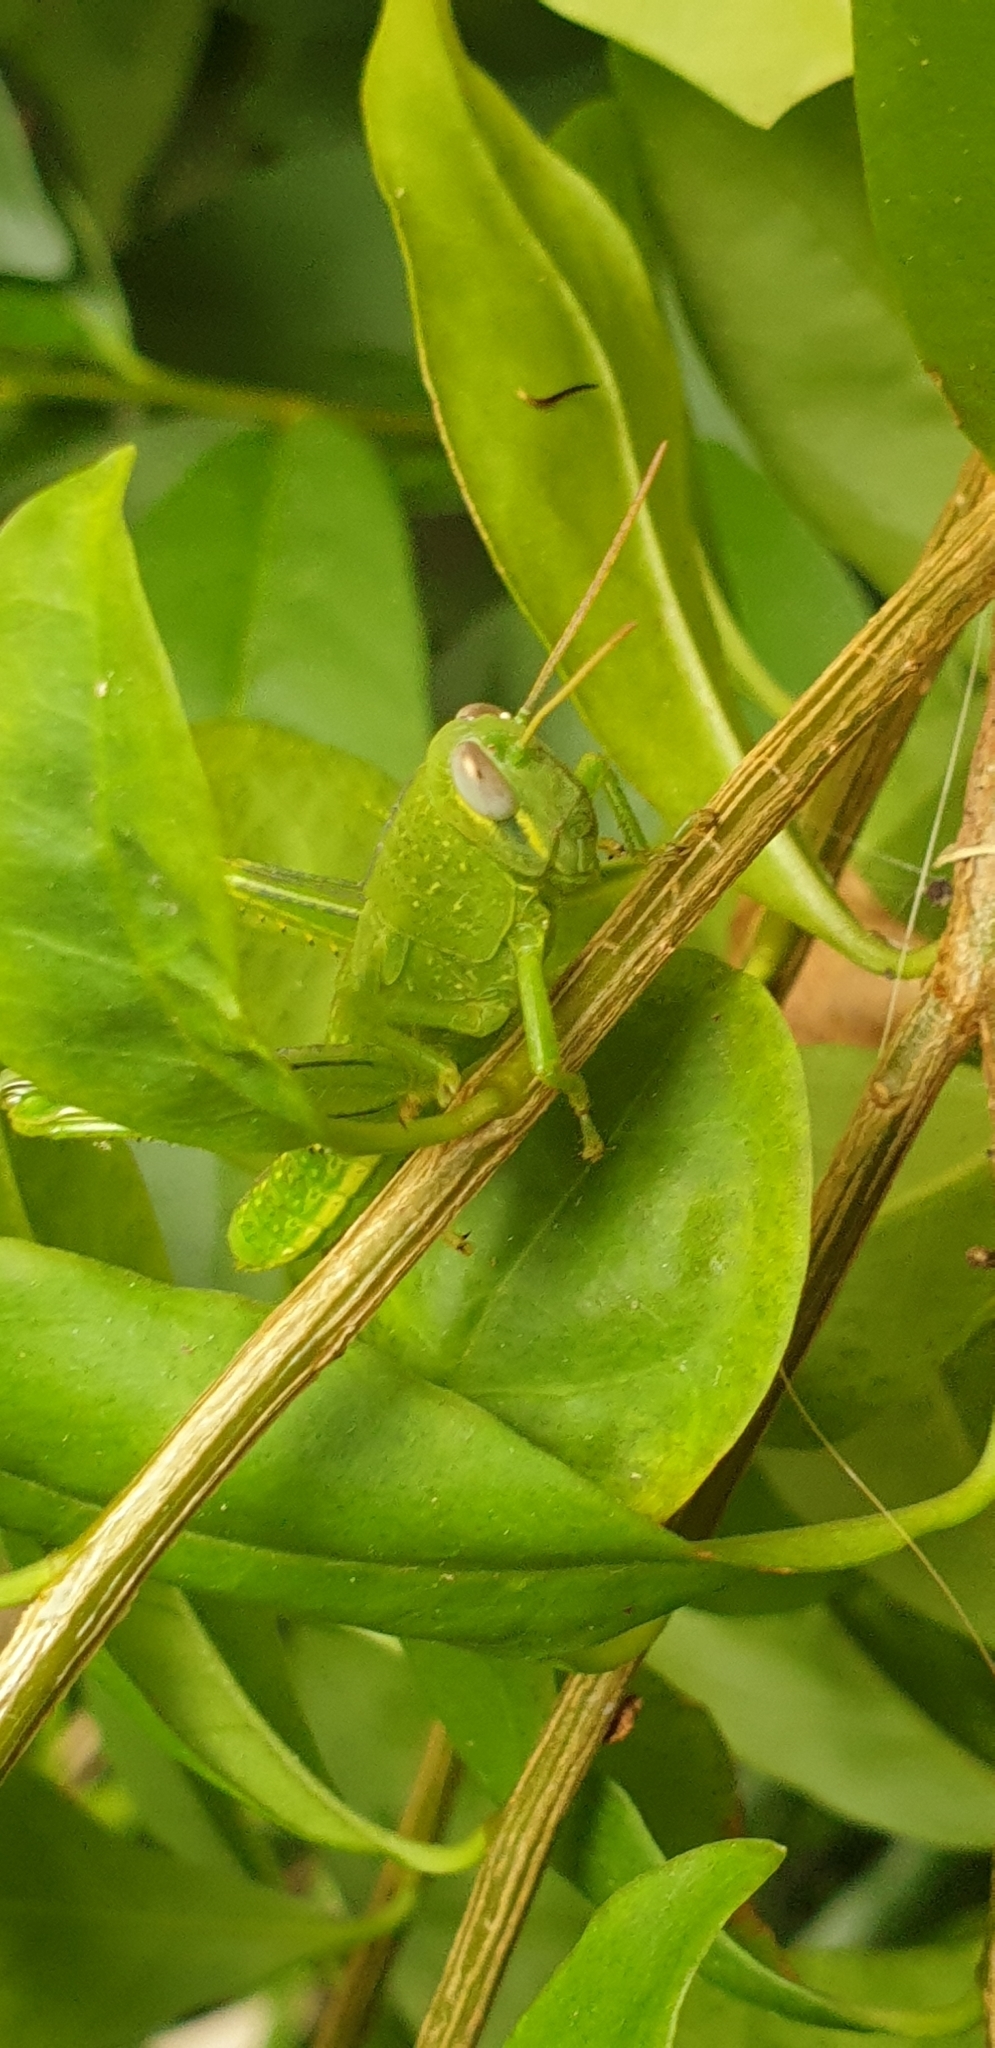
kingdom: Animalia
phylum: Arthropoda
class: Insecta
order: Orthoptera
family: Acrididae
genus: Valanga
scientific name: Valanga irregularis
